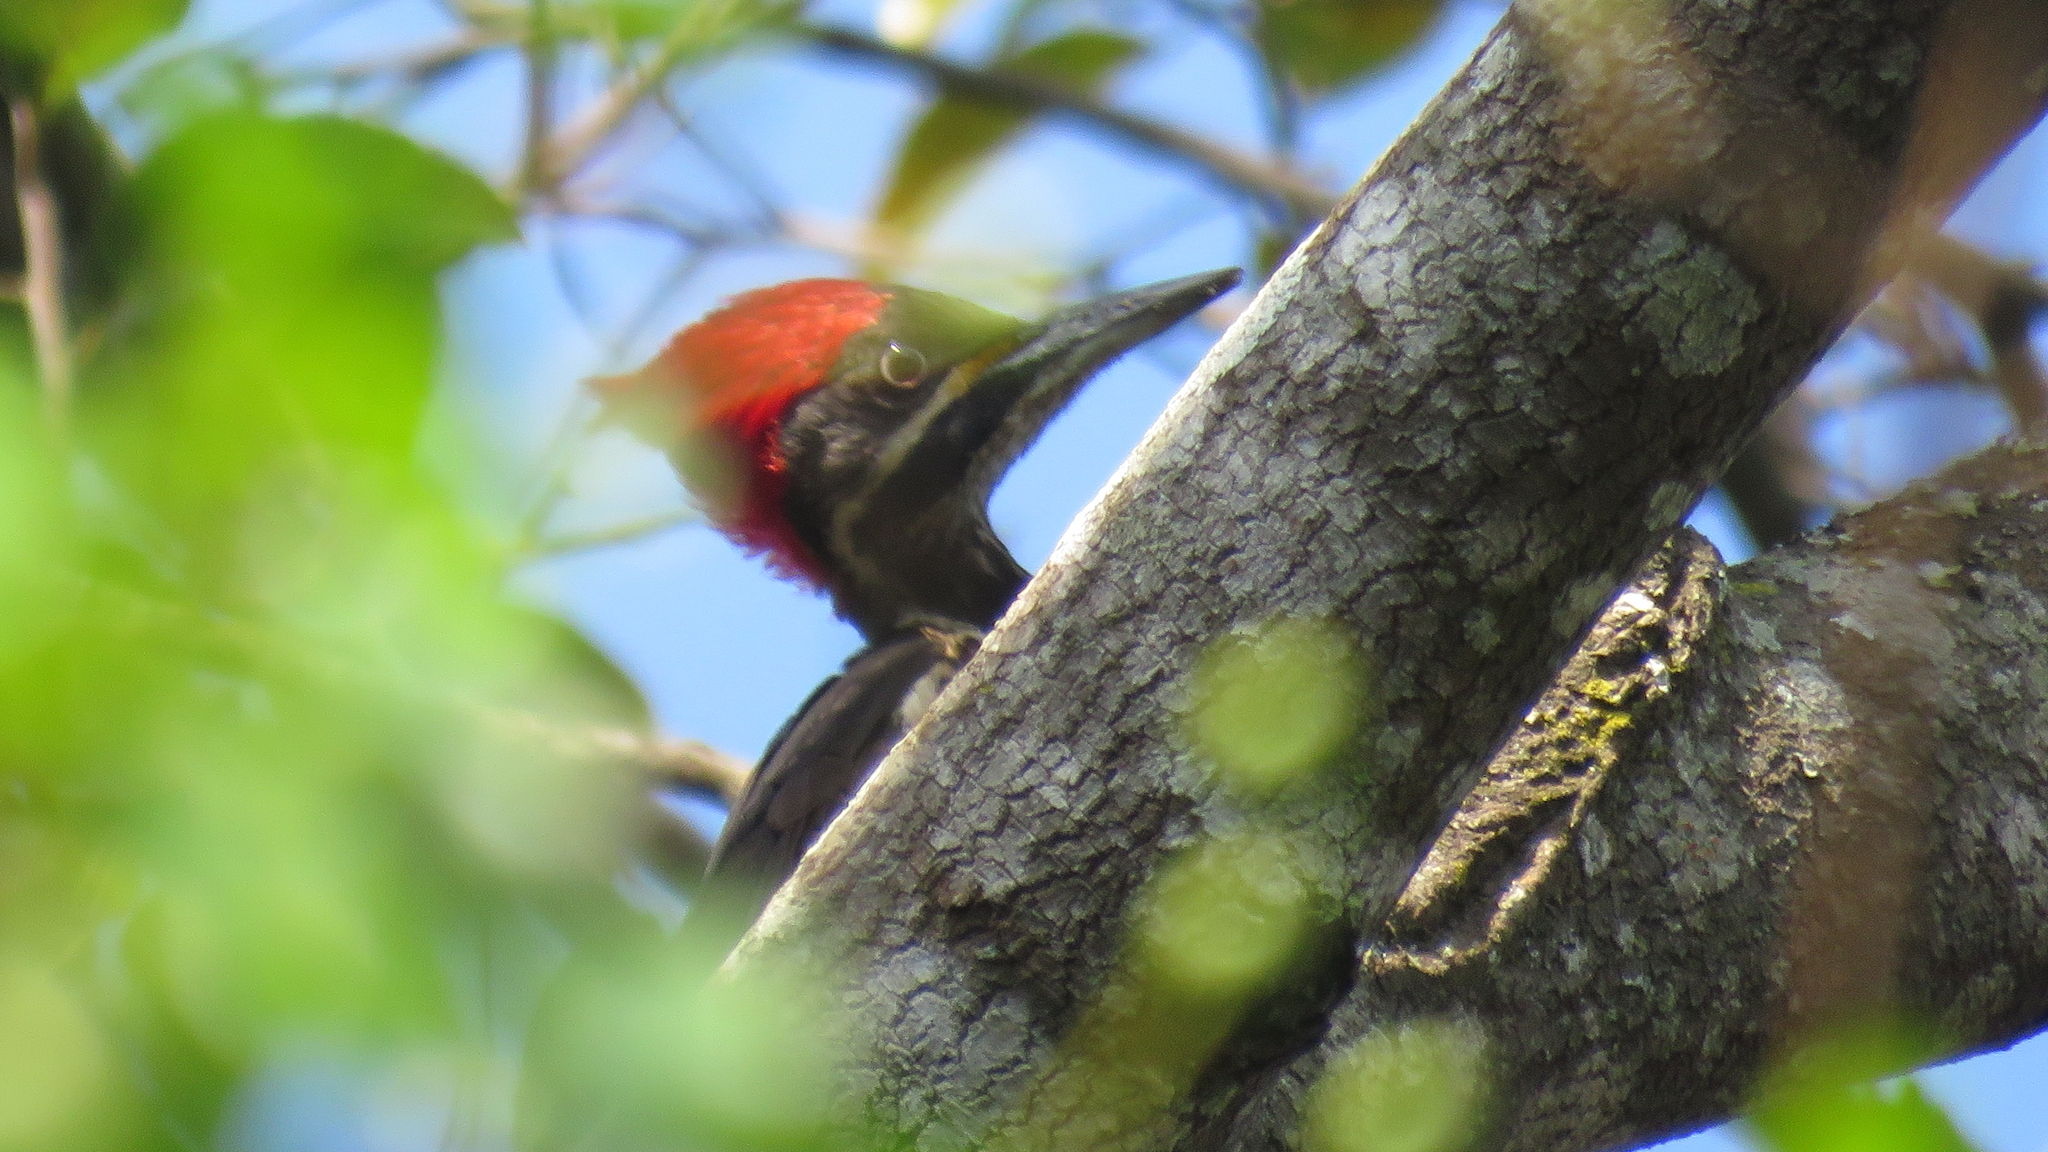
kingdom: Animalia
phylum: Chordata
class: Aves
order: Piciformes
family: Picidae
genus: Dryocopus
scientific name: Dryocopus lineatus
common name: Lineated woodpecker
